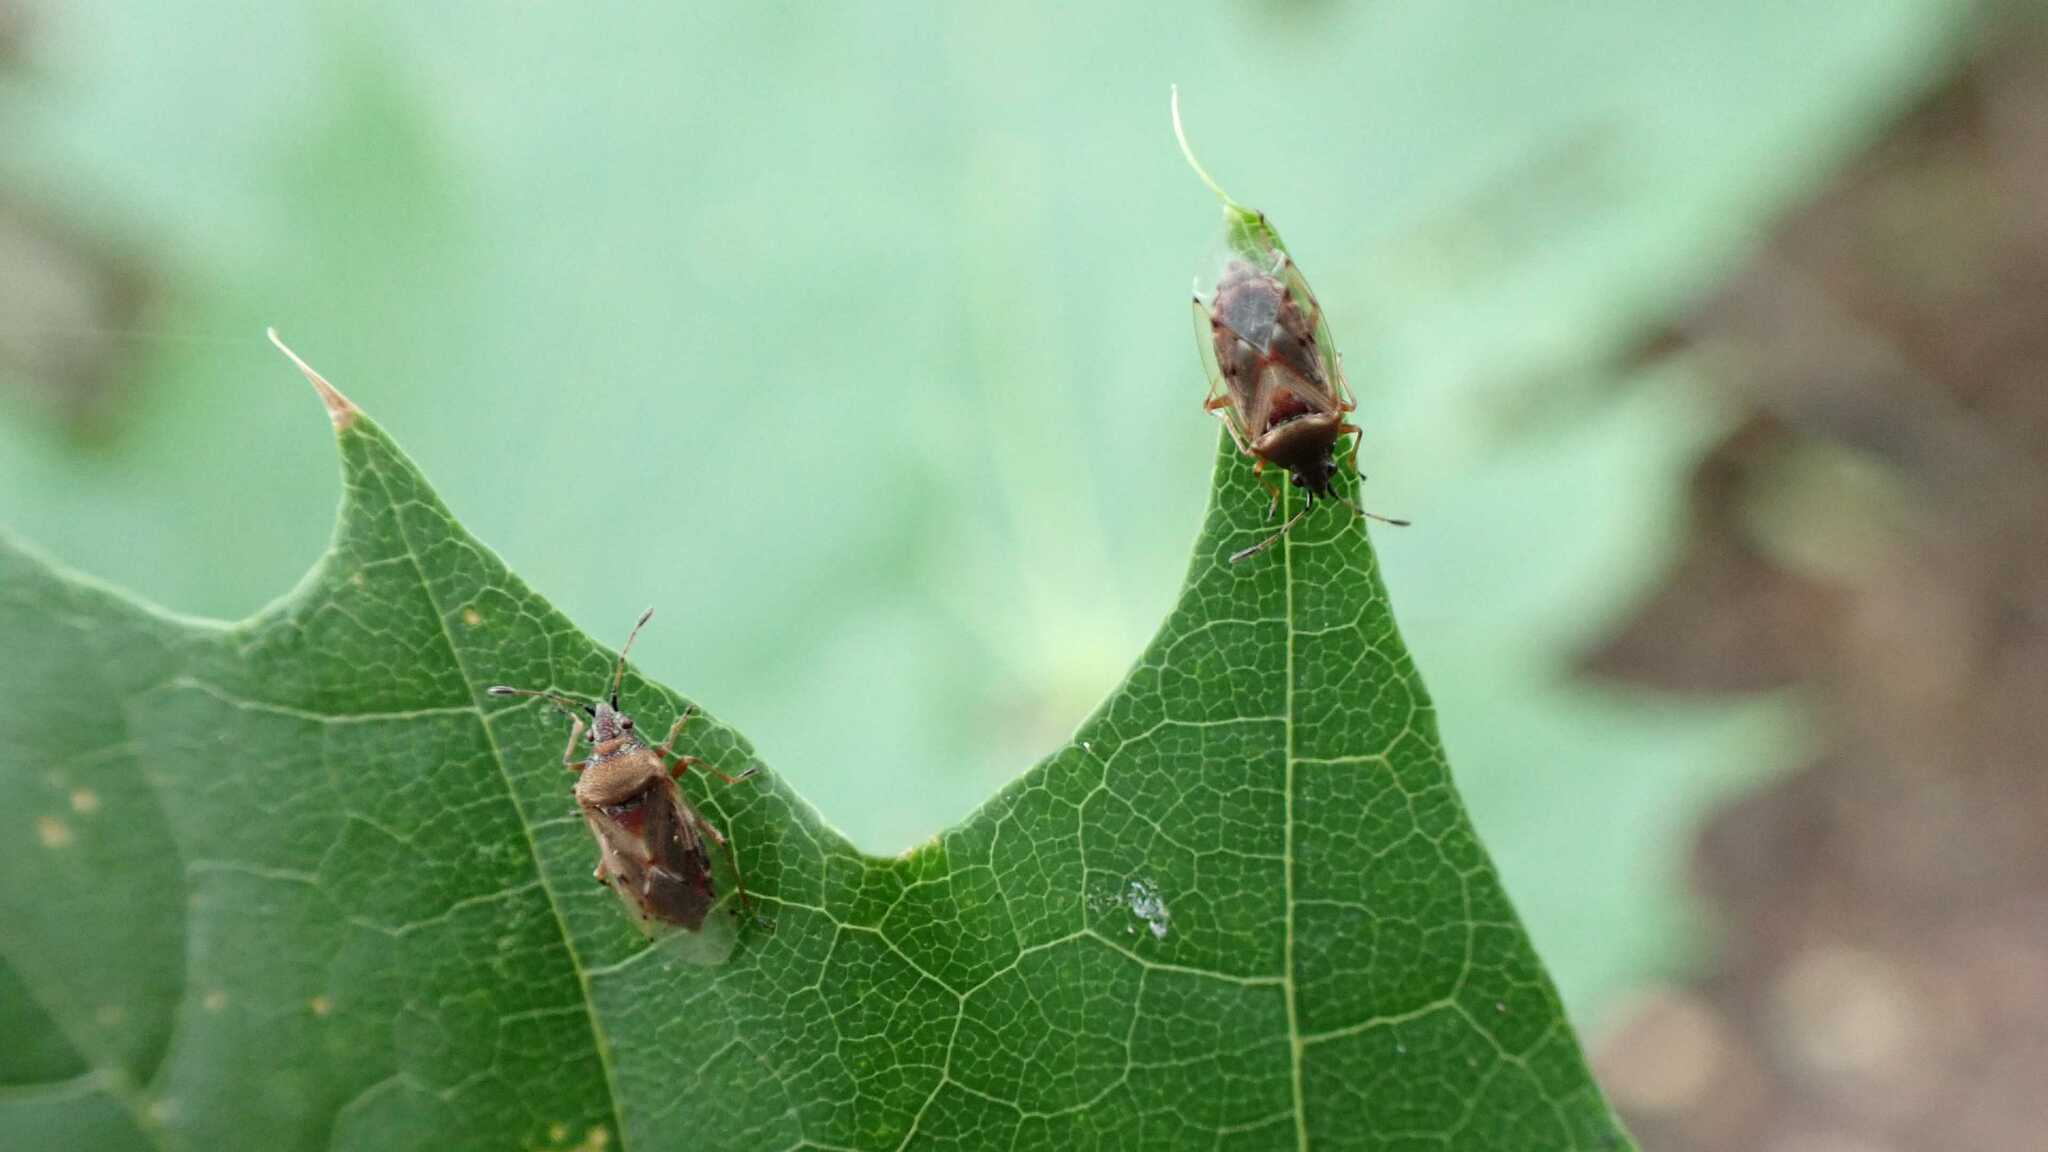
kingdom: Animalia
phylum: Arthropoda
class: Insecta
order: Hemiptera
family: Lygaeidae
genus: Kleidocerys
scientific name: Kleidocerys resedae
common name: Birch catkin bug
